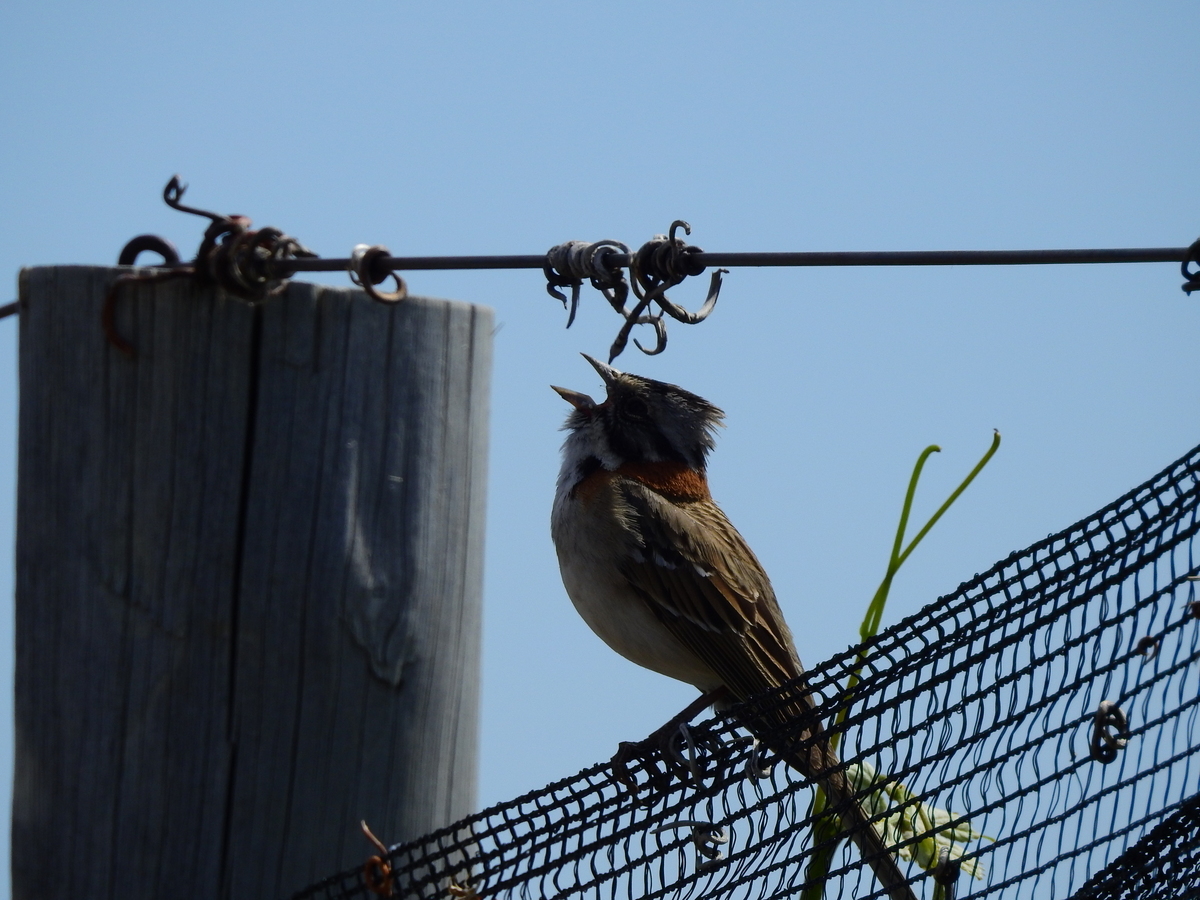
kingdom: Animalia
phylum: Chordata
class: Aves
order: Passeriformes
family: Passerellidae
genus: Zonotrichia
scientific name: Zonotrichia capensis
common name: Rufous-collared sparrow
